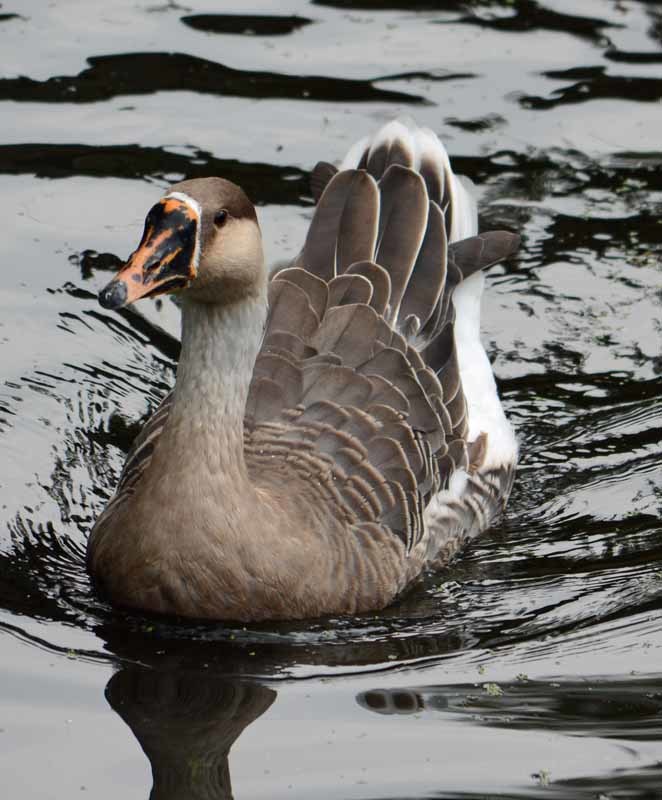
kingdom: Animalia
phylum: Chordata
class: Aves
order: Anseriformes
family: Anatidae
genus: Anser
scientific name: Anser
